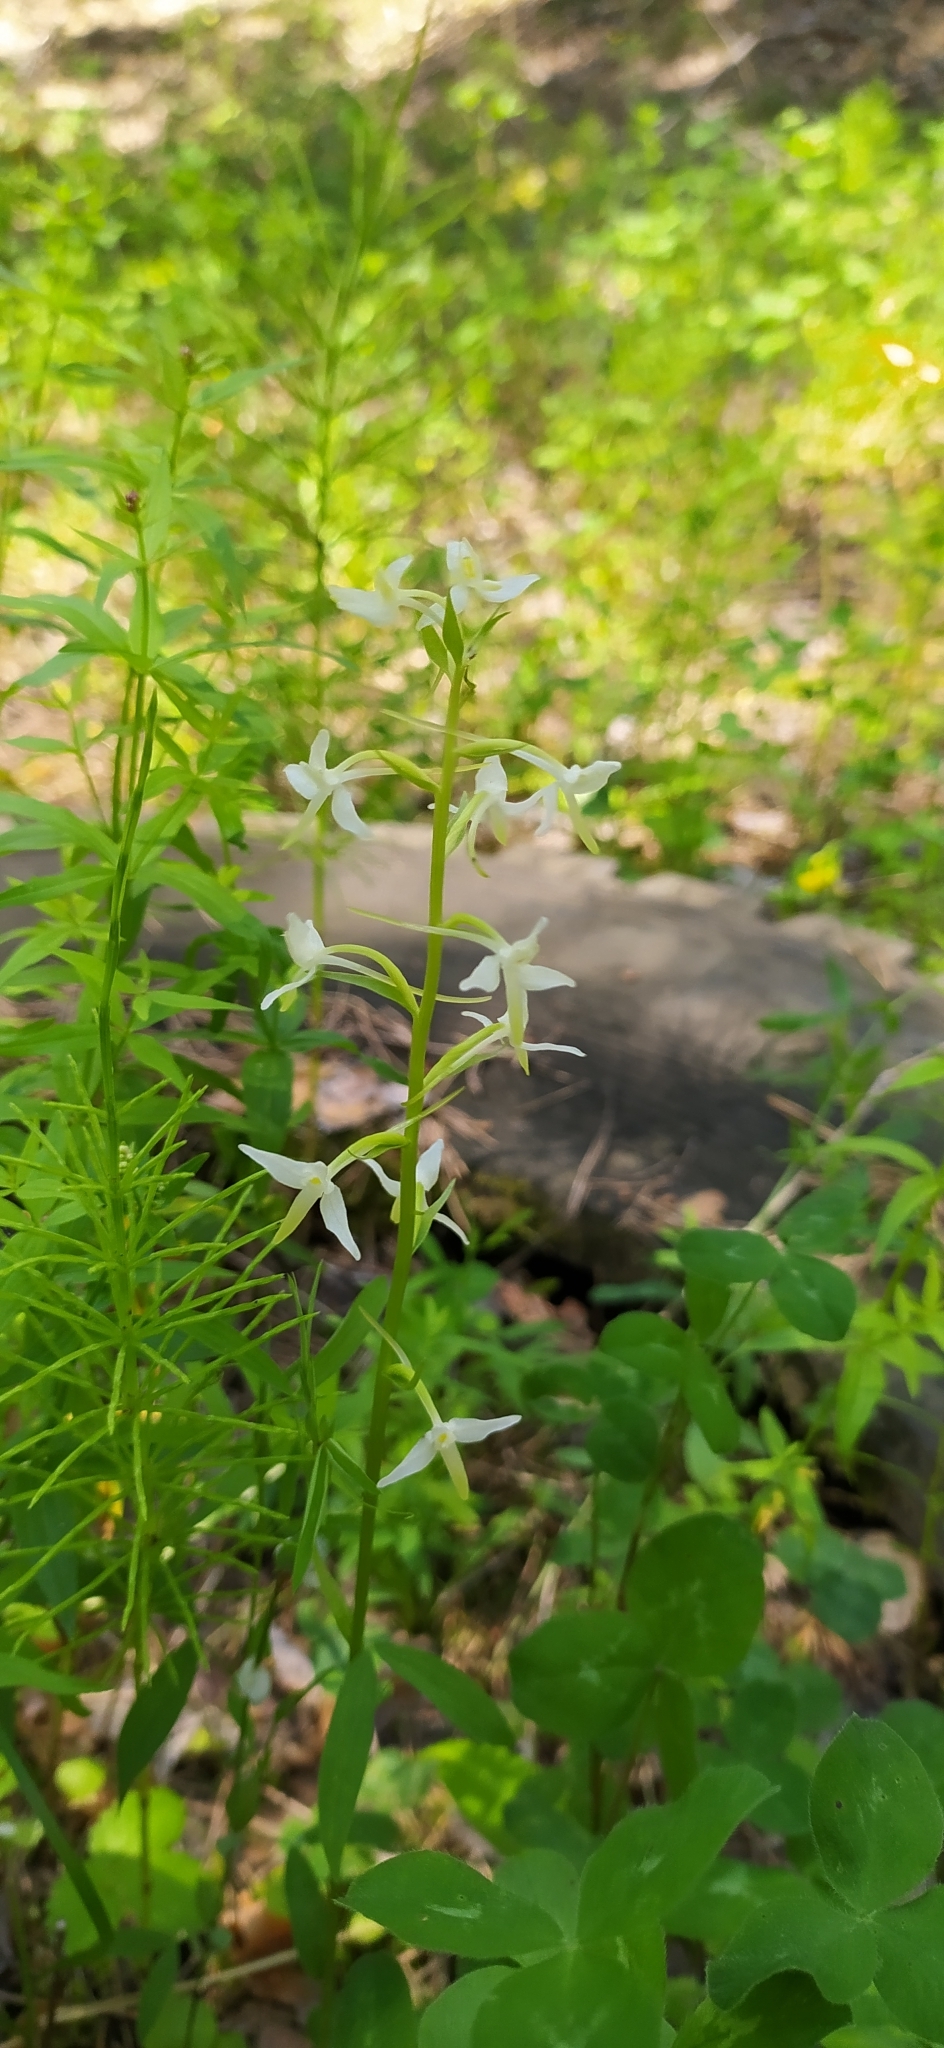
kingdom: Plantae
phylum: Tracheophyta
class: Liliopsida
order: Asparagales
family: Orchidaceae
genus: Platanthera
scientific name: Platanthera bifolia
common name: Lesser butterfly-orchid
